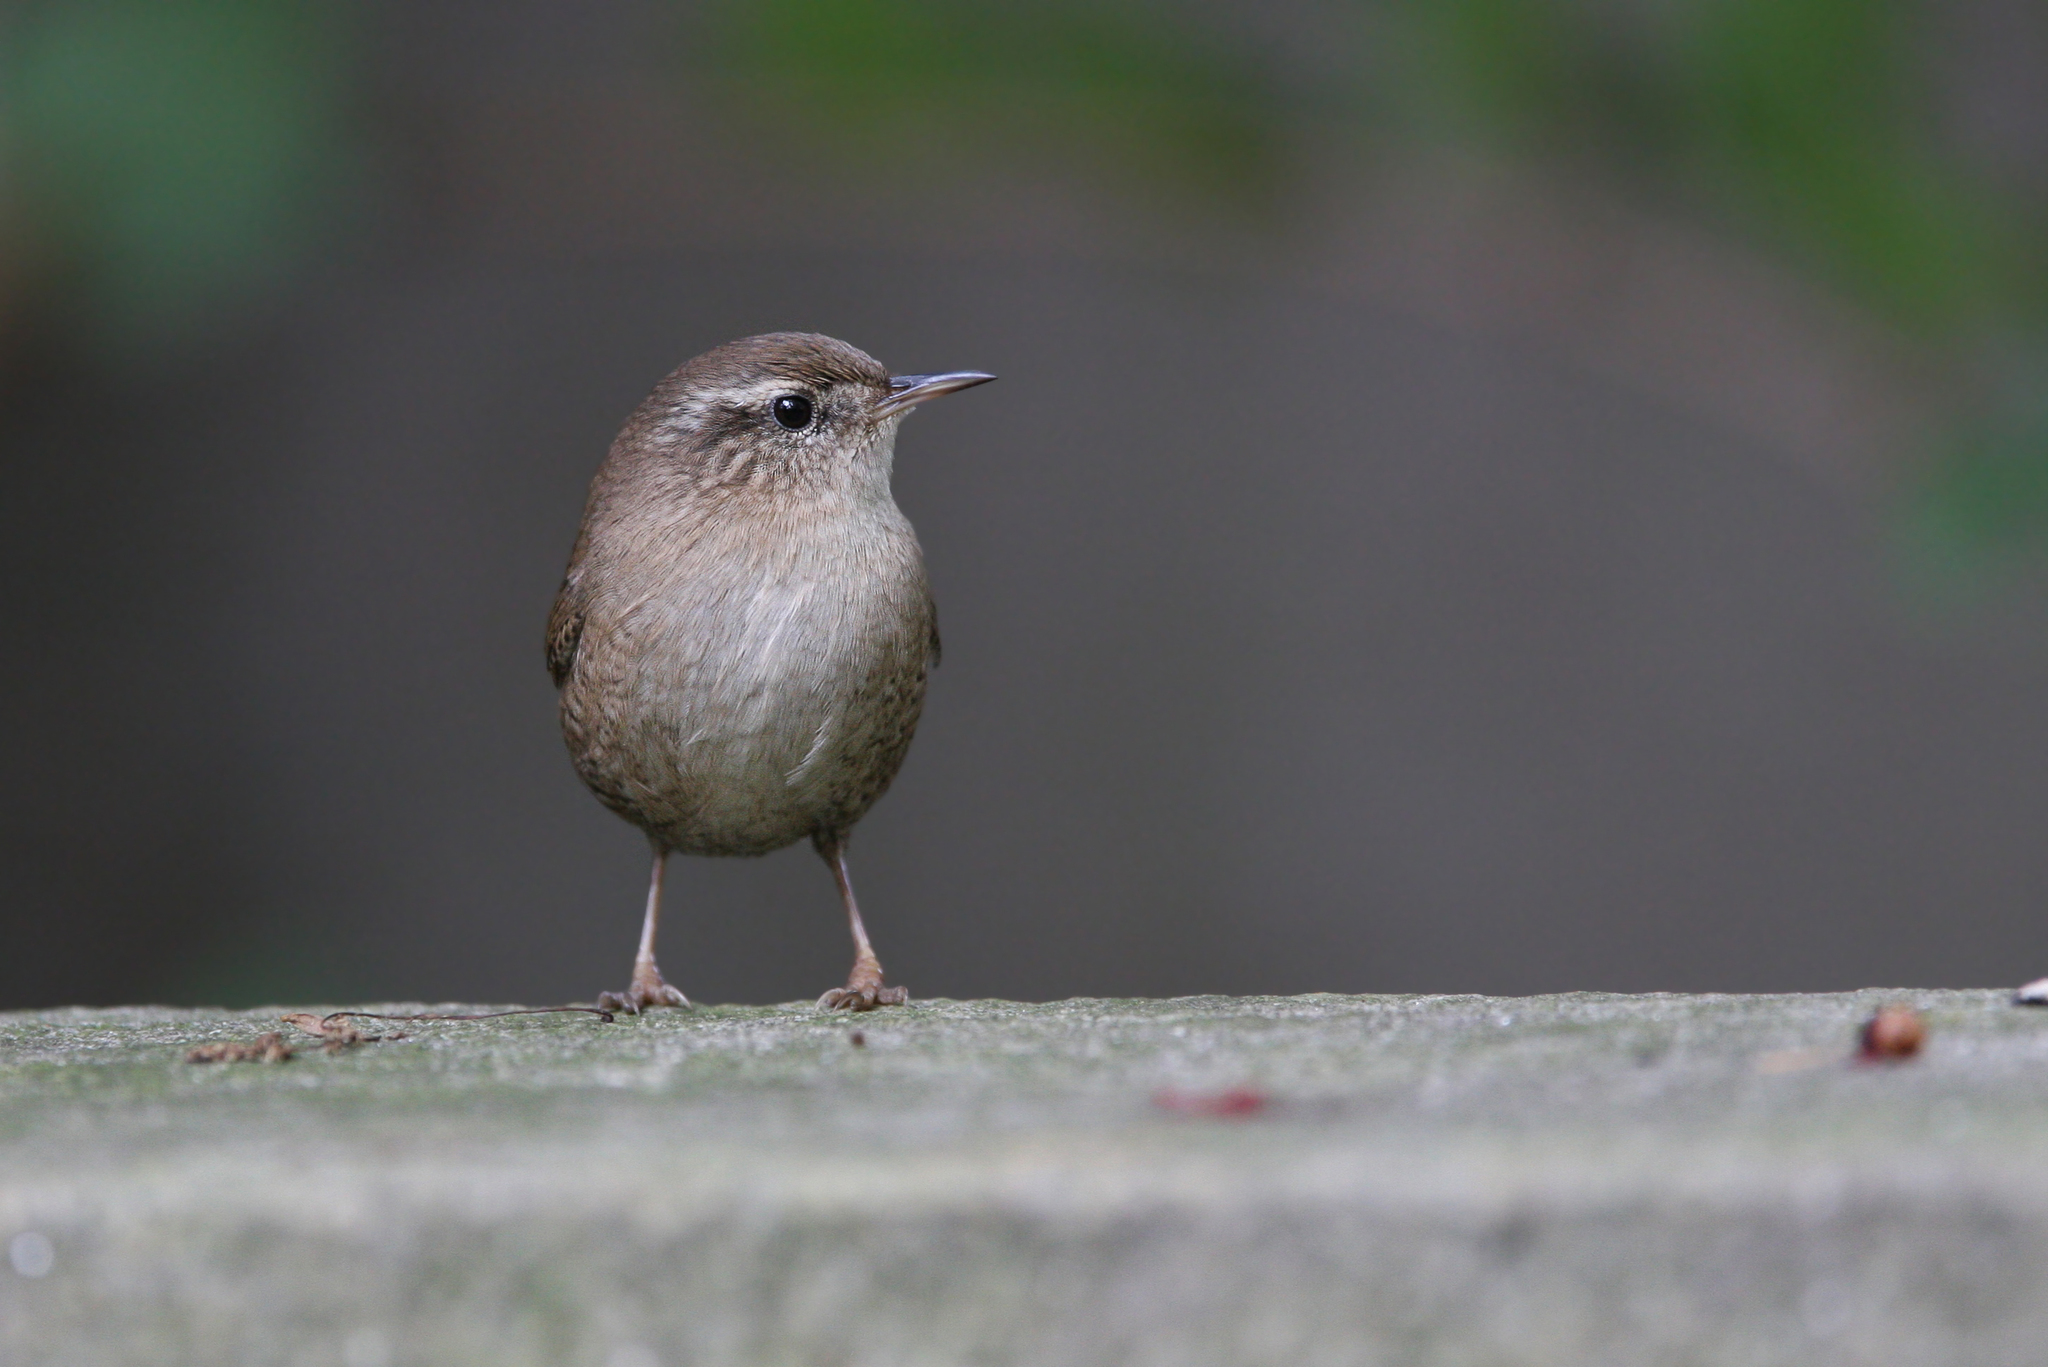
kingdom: Animalia
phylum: Chordata
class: Aves
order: Passeriformes
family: Troglodytidae
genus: Troglodytes
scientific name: Troglodytes troglodytes
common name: Eurasian wren
